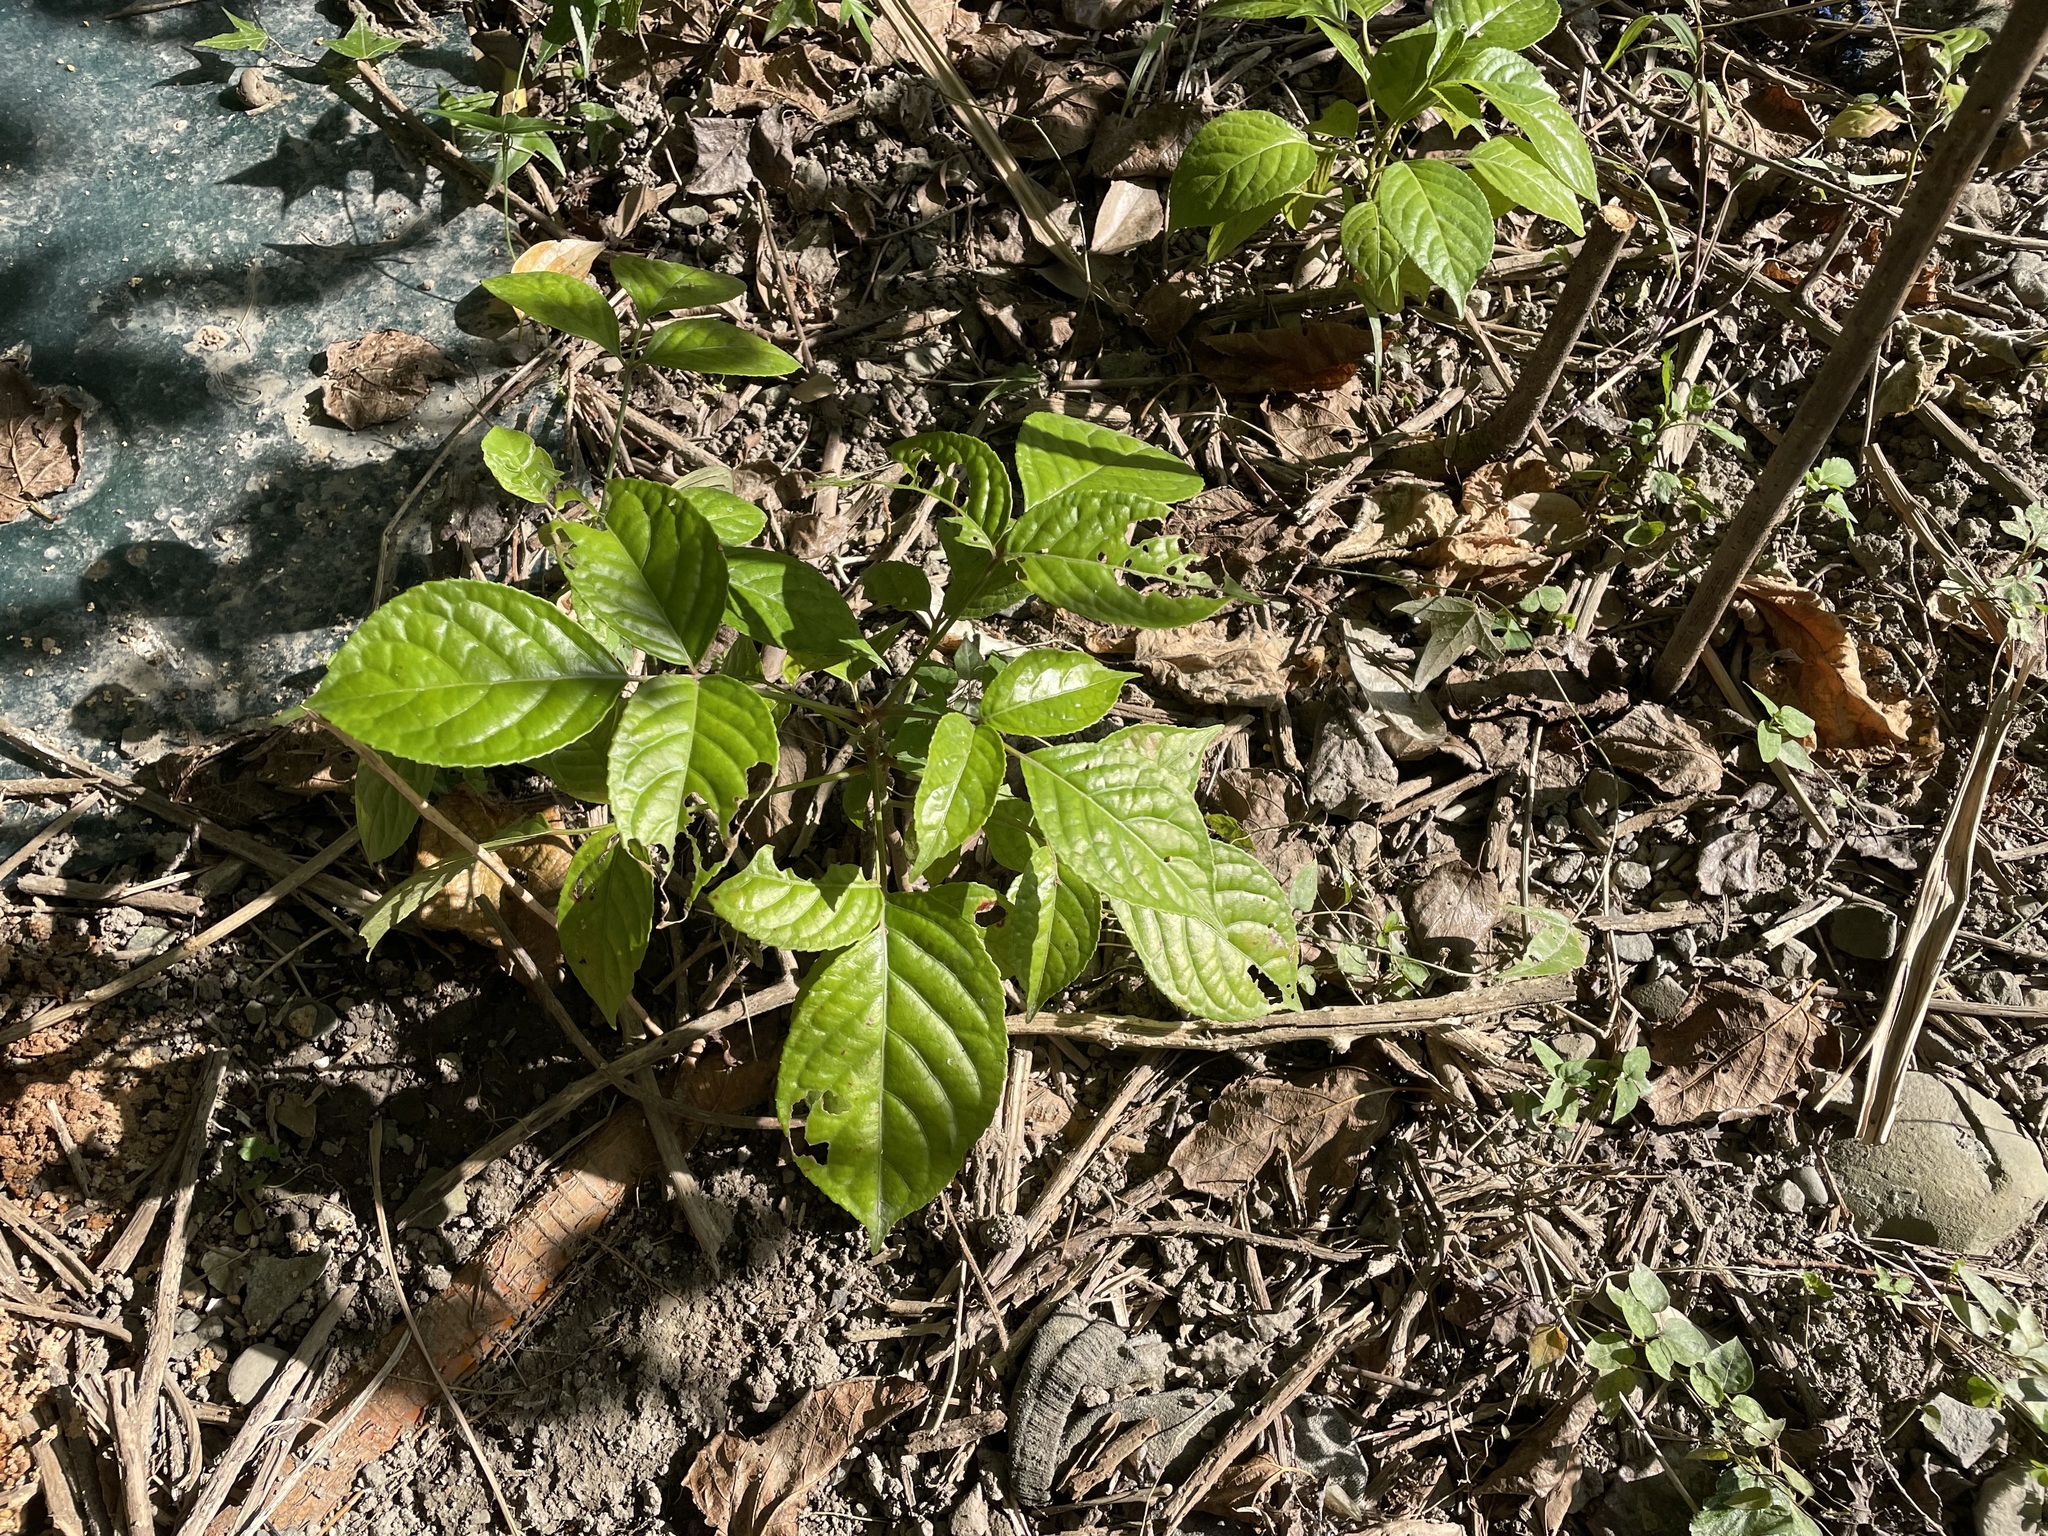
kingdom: Plantae
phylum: Tracheophyta
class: Magnoliopsida
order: Malpighiales
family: Phyllanthaceae
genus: Bischofia
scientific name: Bischofia javanica
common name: Javanese bishopwood
